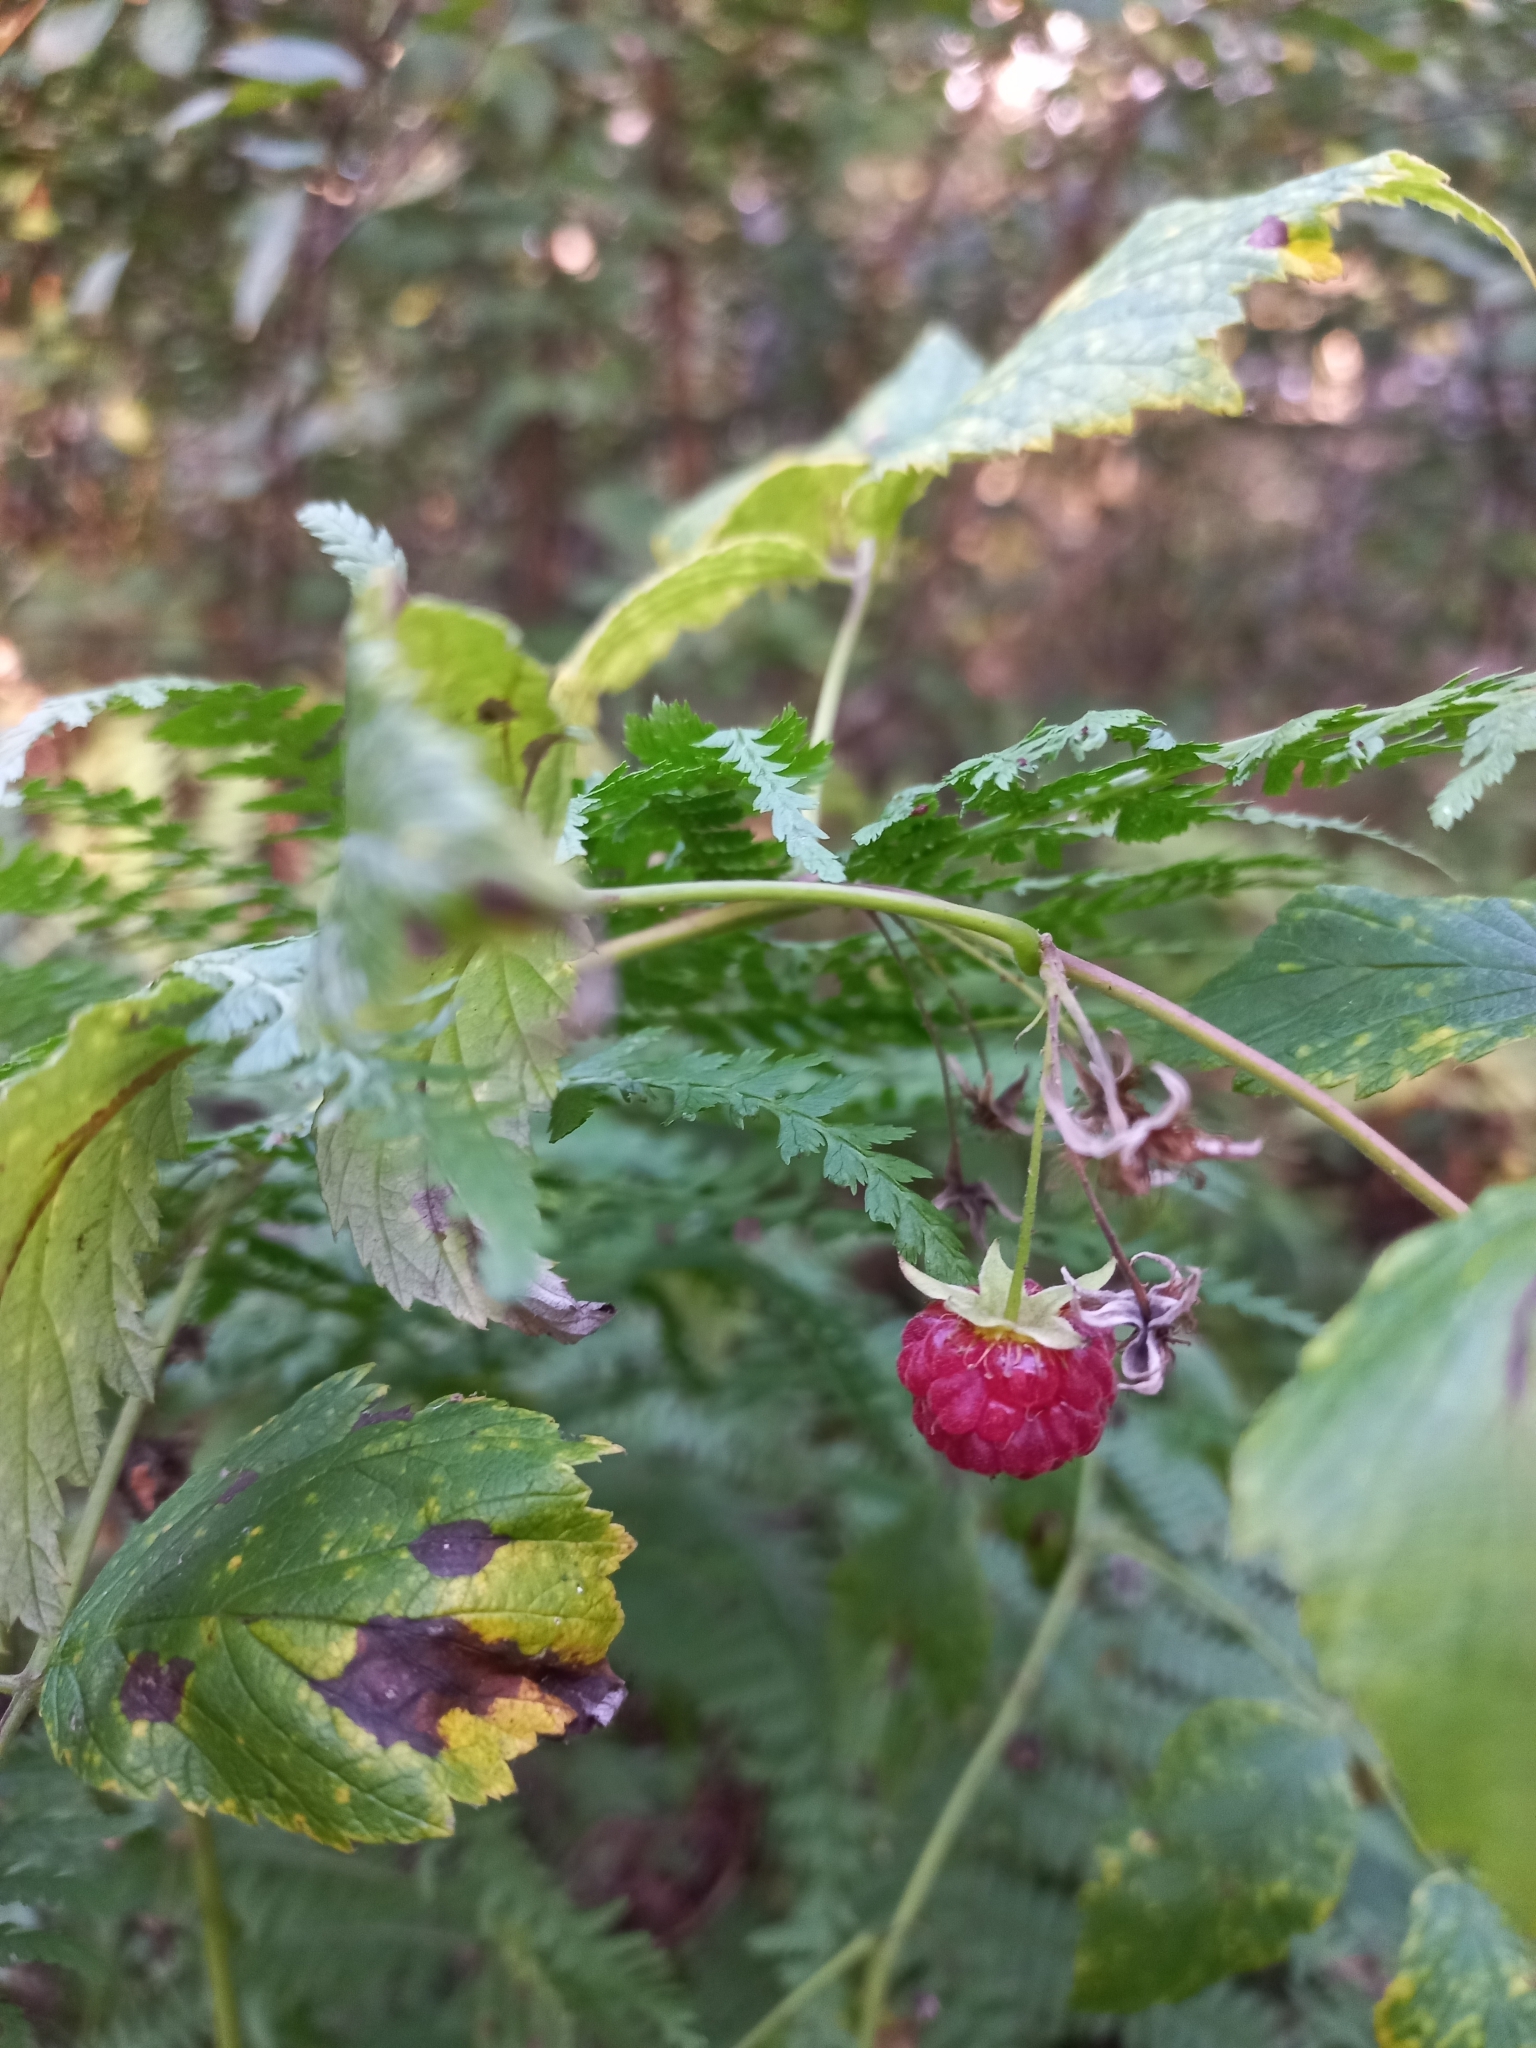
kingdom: Plantae
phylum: Tracheophyta
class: Magnoliopsida
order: Rosales
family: Rosaceae
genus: Rubus
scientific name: Rubus idaeus
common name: Raspberry
